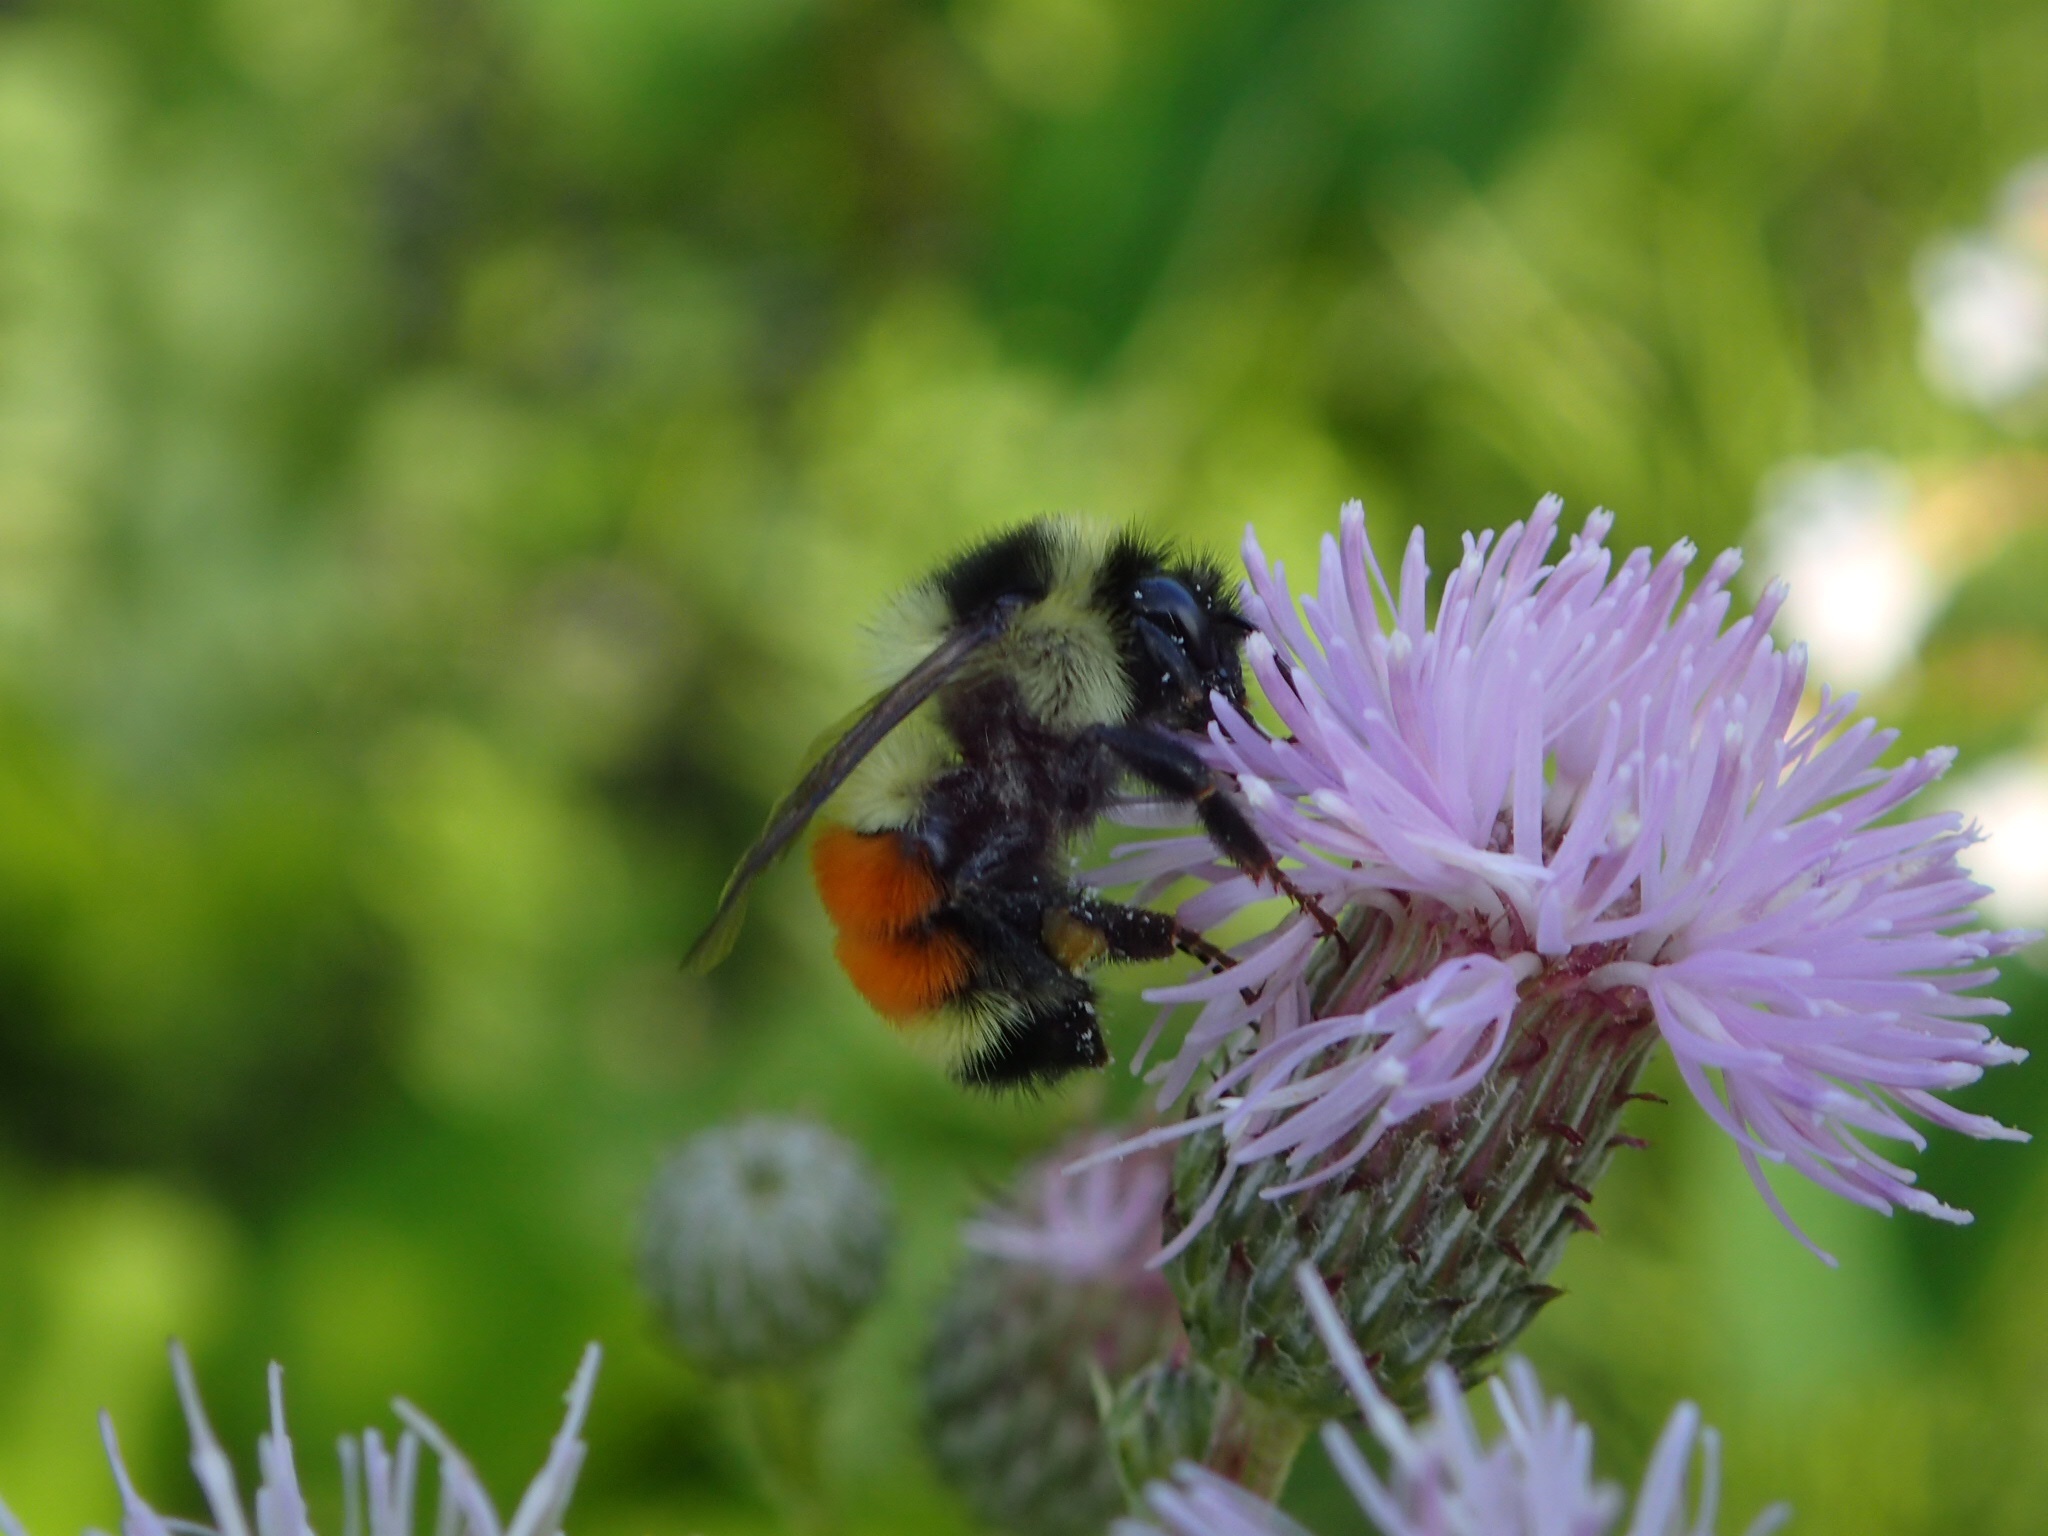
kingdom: Animalia
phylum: Arthropoda
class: Insecta
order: Hymenoptera
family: Apidae
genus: Bombus
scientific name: Bombus ternarius
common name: Tri-colored bumble bee
